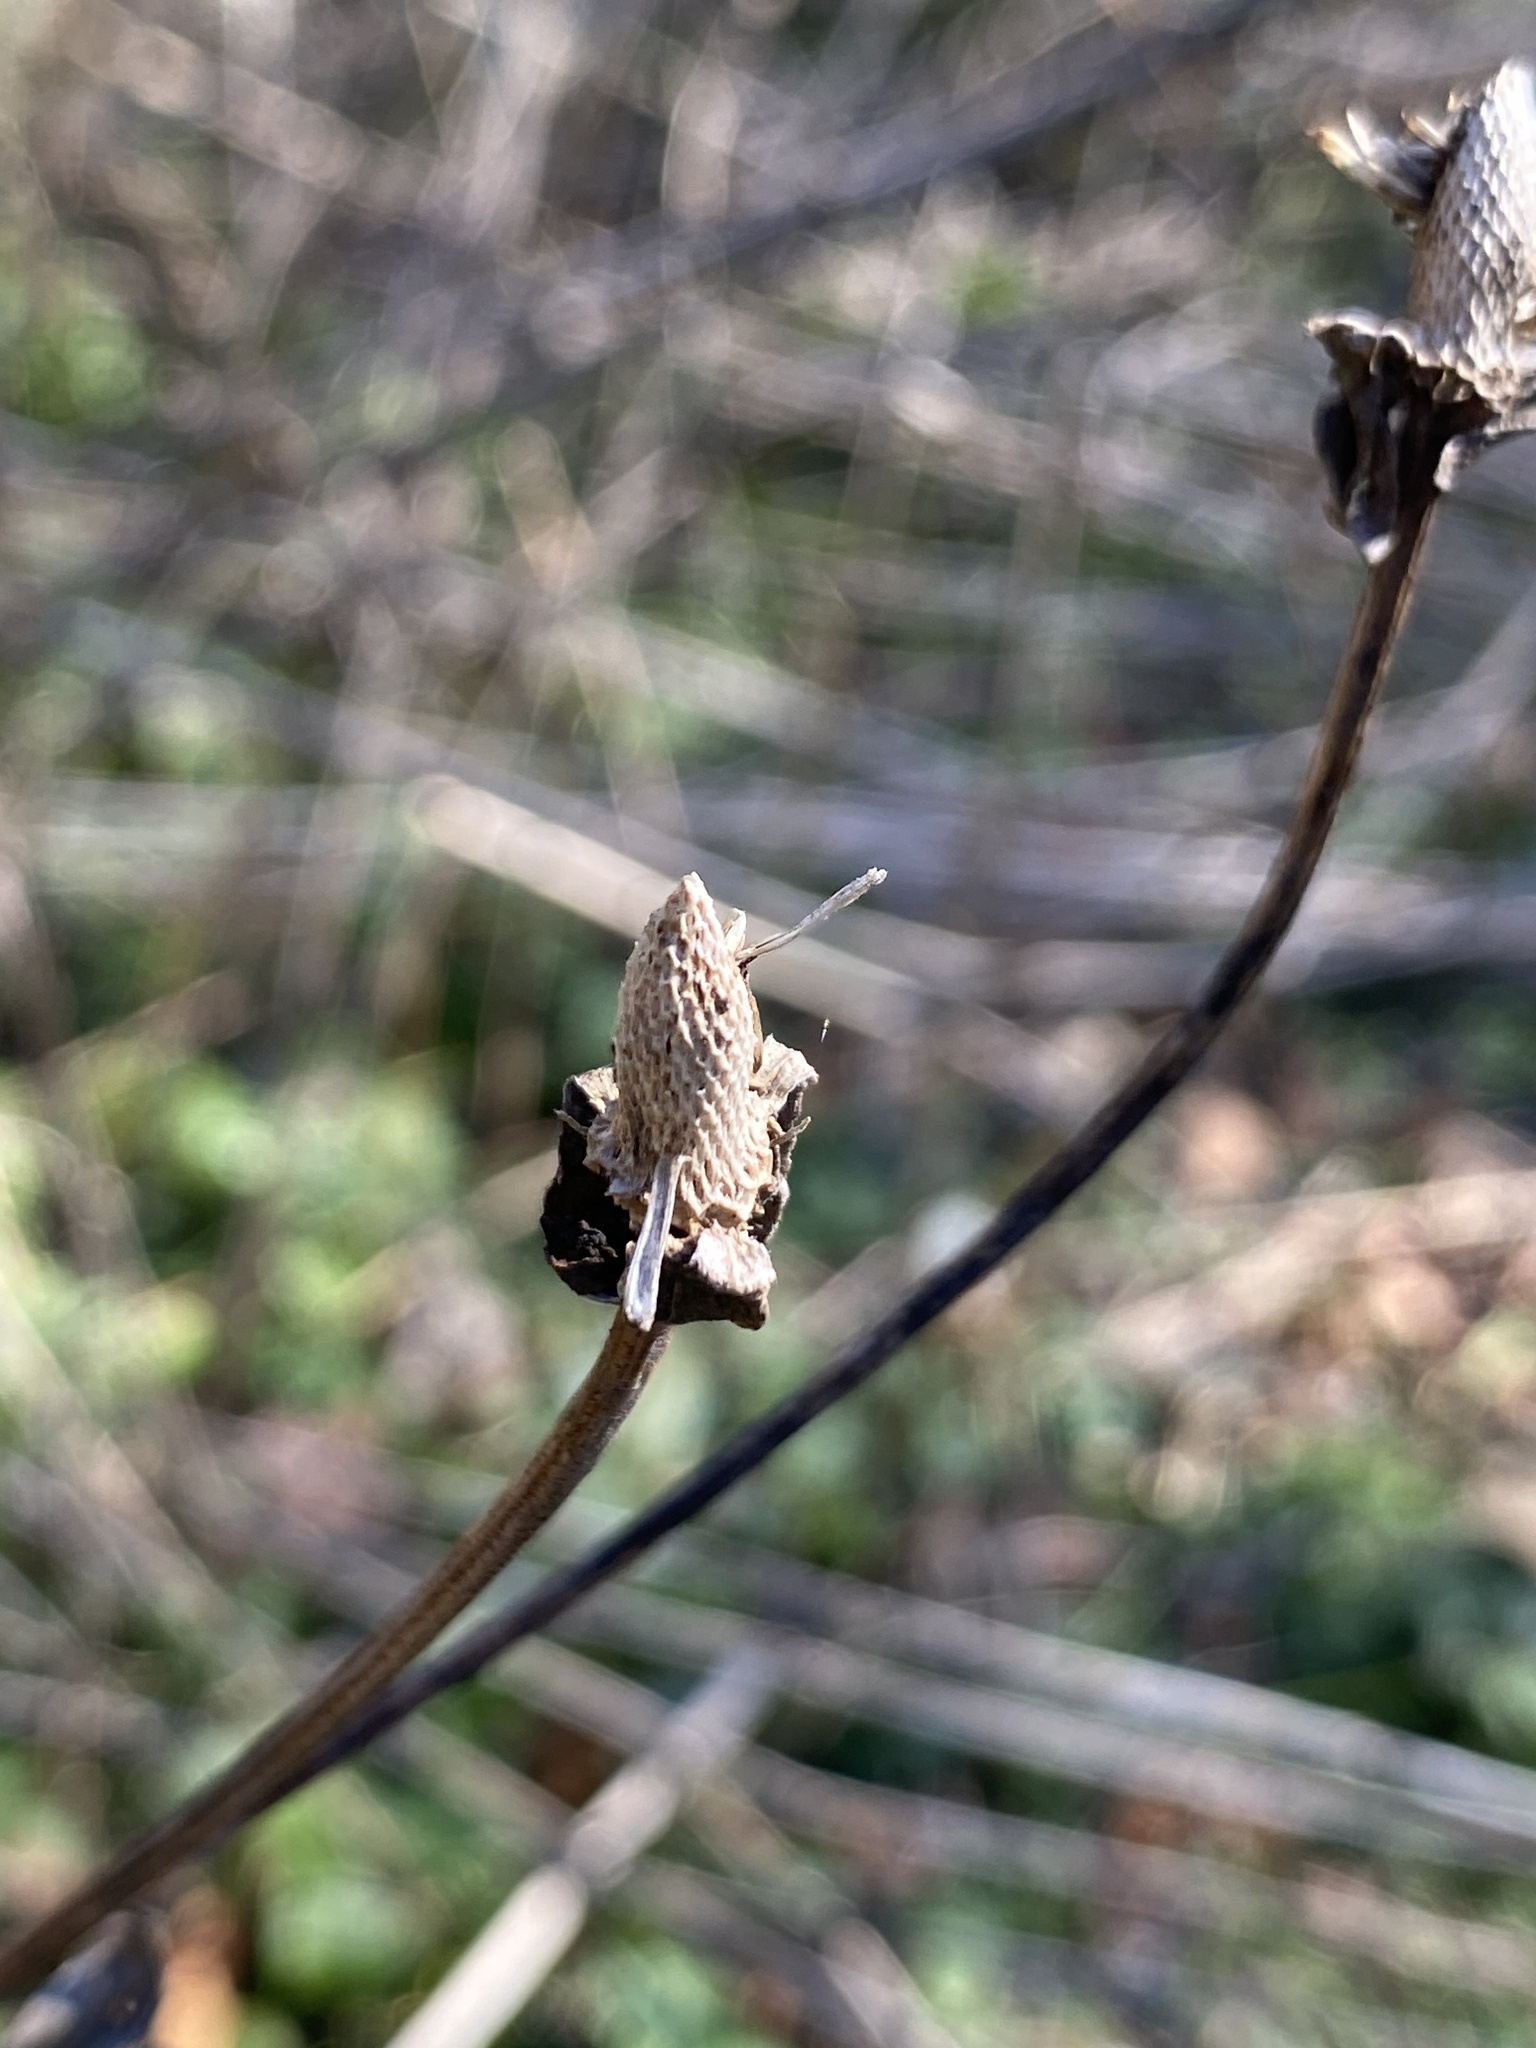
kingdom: Plantae
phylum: Tracheophyta
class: Magnoliopsida
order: Asterales
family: Asteraceae
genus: Rudbeckia
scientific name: Rudbeckia laciniata
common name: Coneflower
